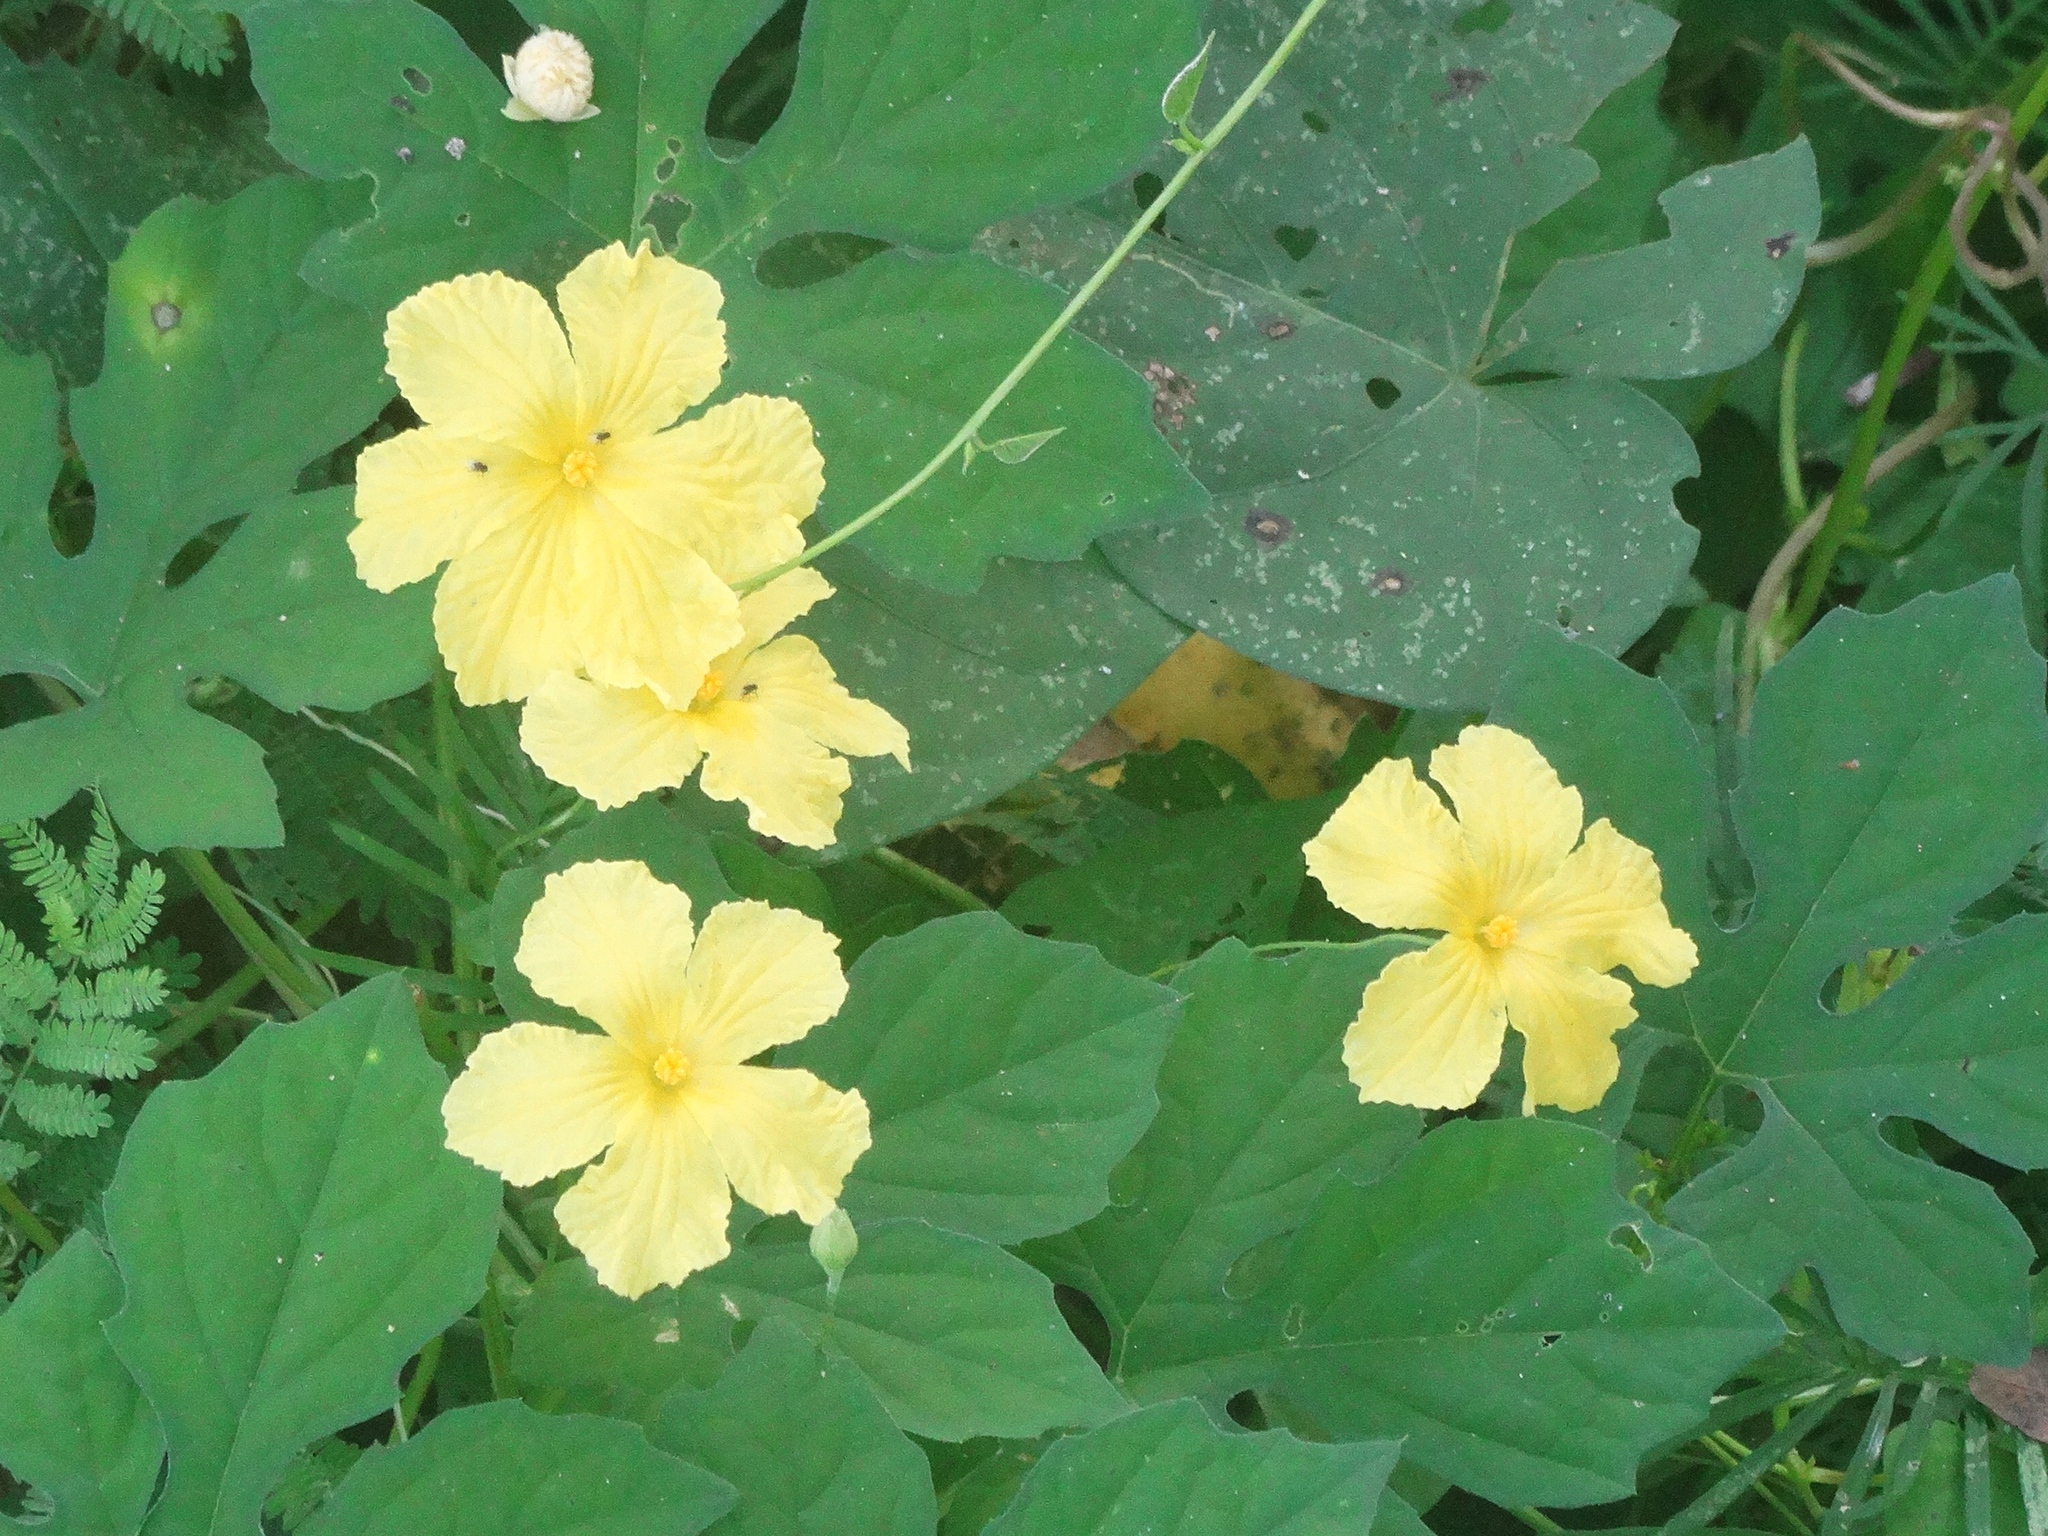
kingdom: Plantae
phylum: Tracheophyta
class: Magnoliopsida
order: Cucurbitales
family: Cucurbitaceae
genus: Momordica
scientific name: Momordica charantia
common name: Balsampear
